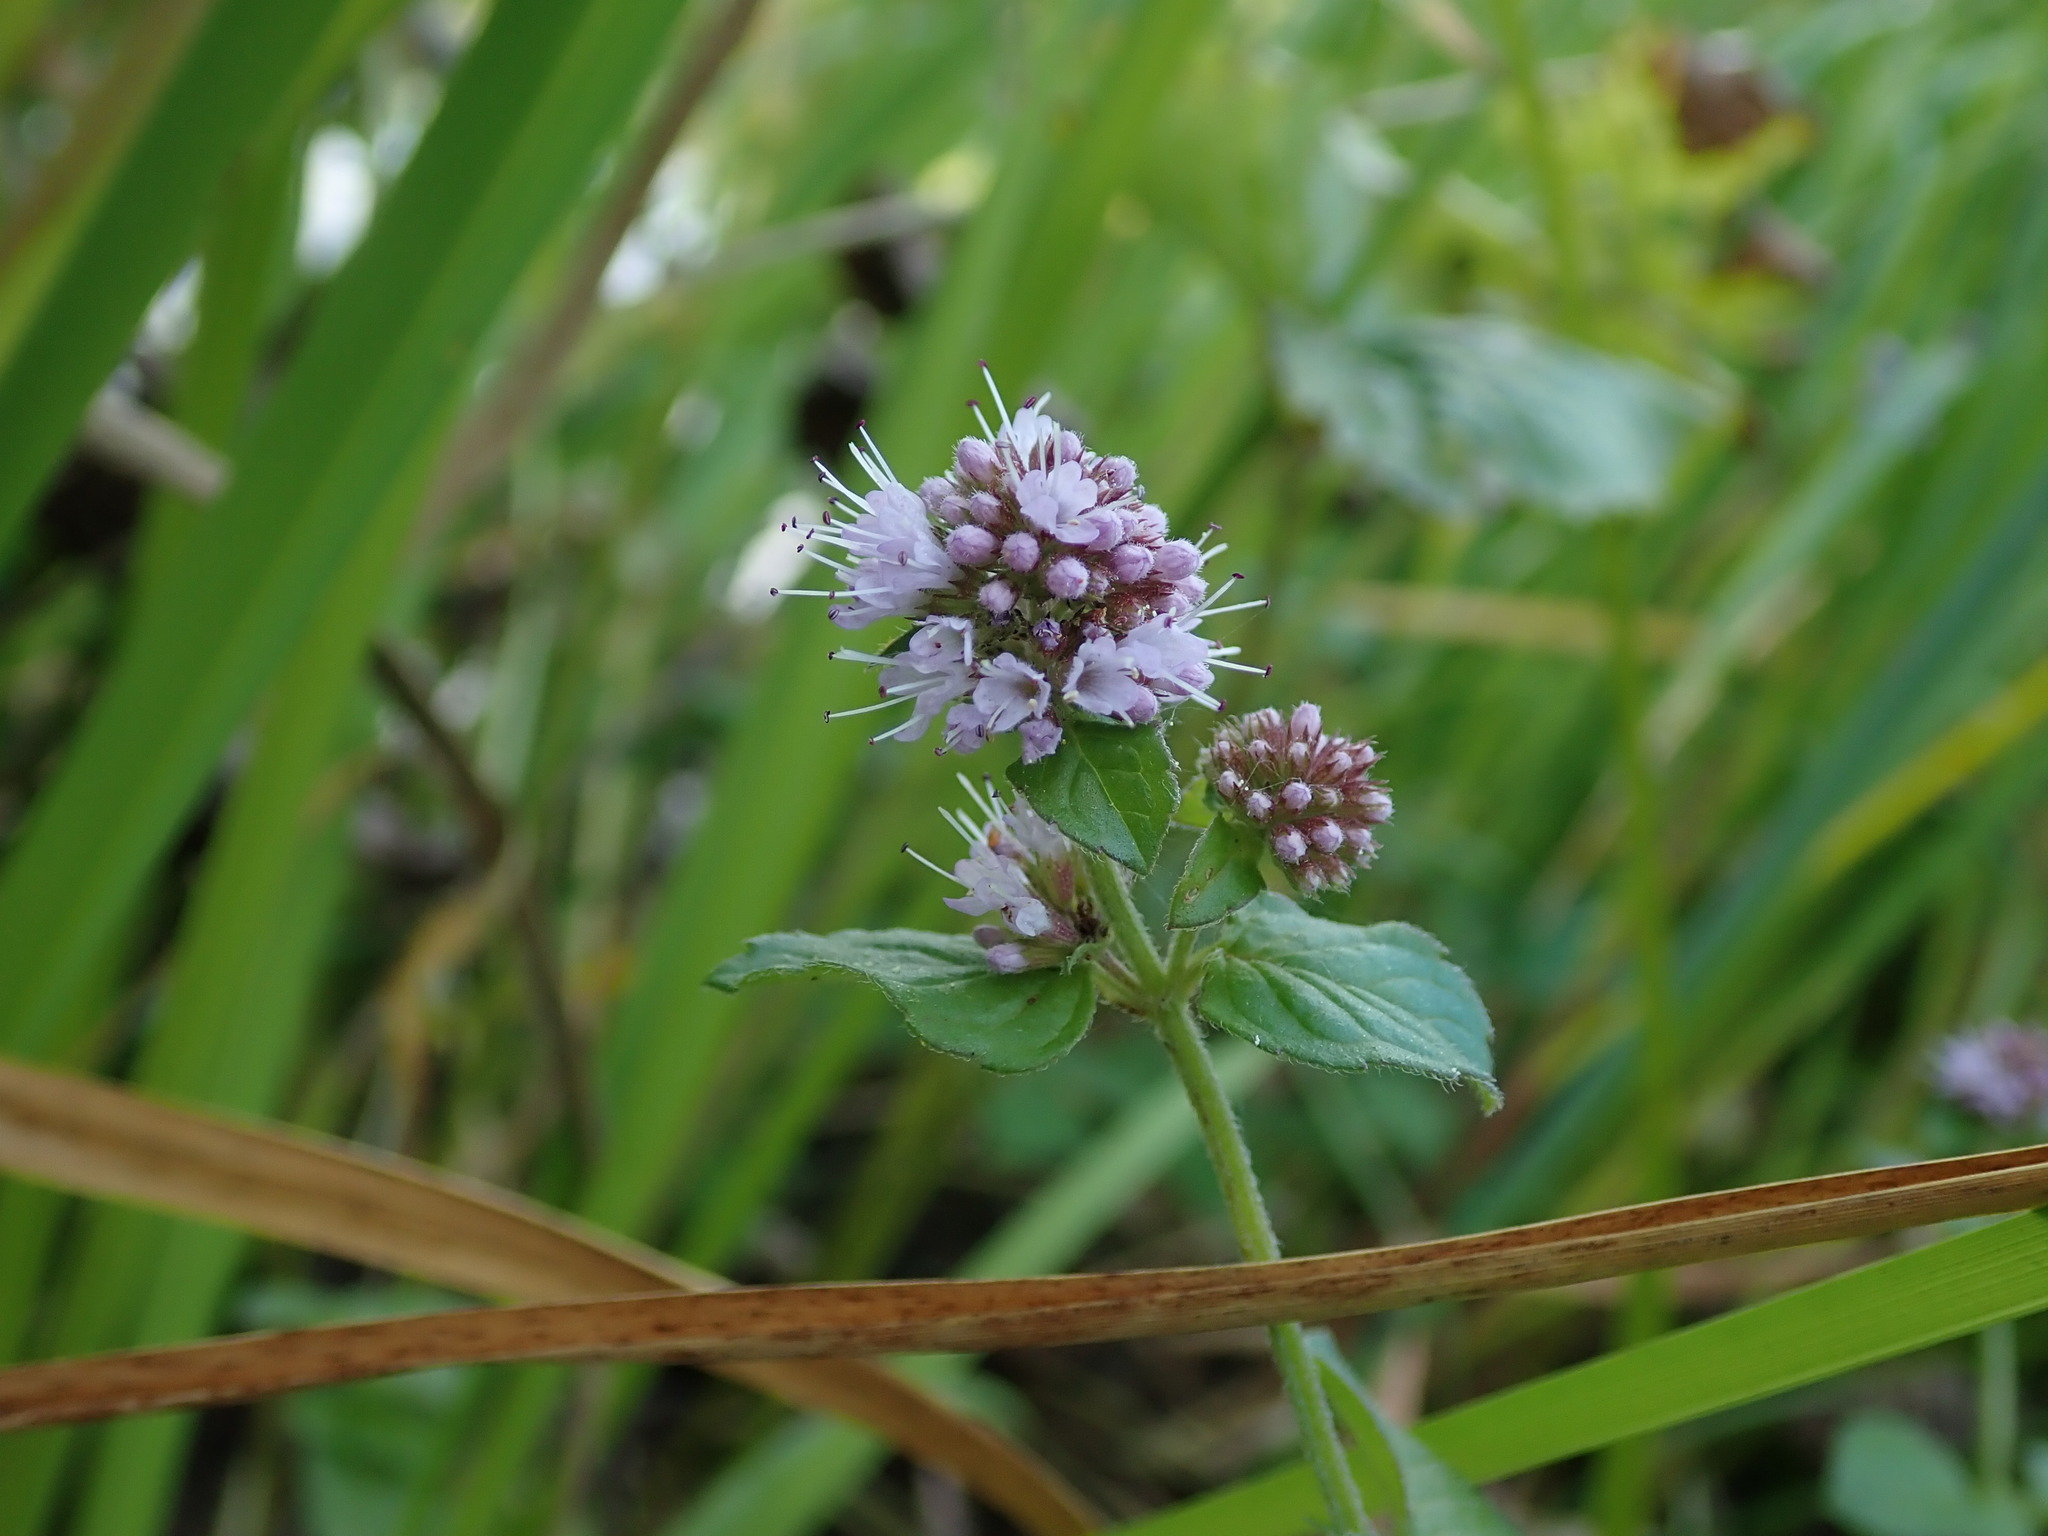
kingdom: Plantae
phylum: Tracheophyta
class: Magnoliopsida
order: Lamiales
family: Lamiaceae
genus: Mentha
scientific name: Mentha aquatica
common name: Water mint
